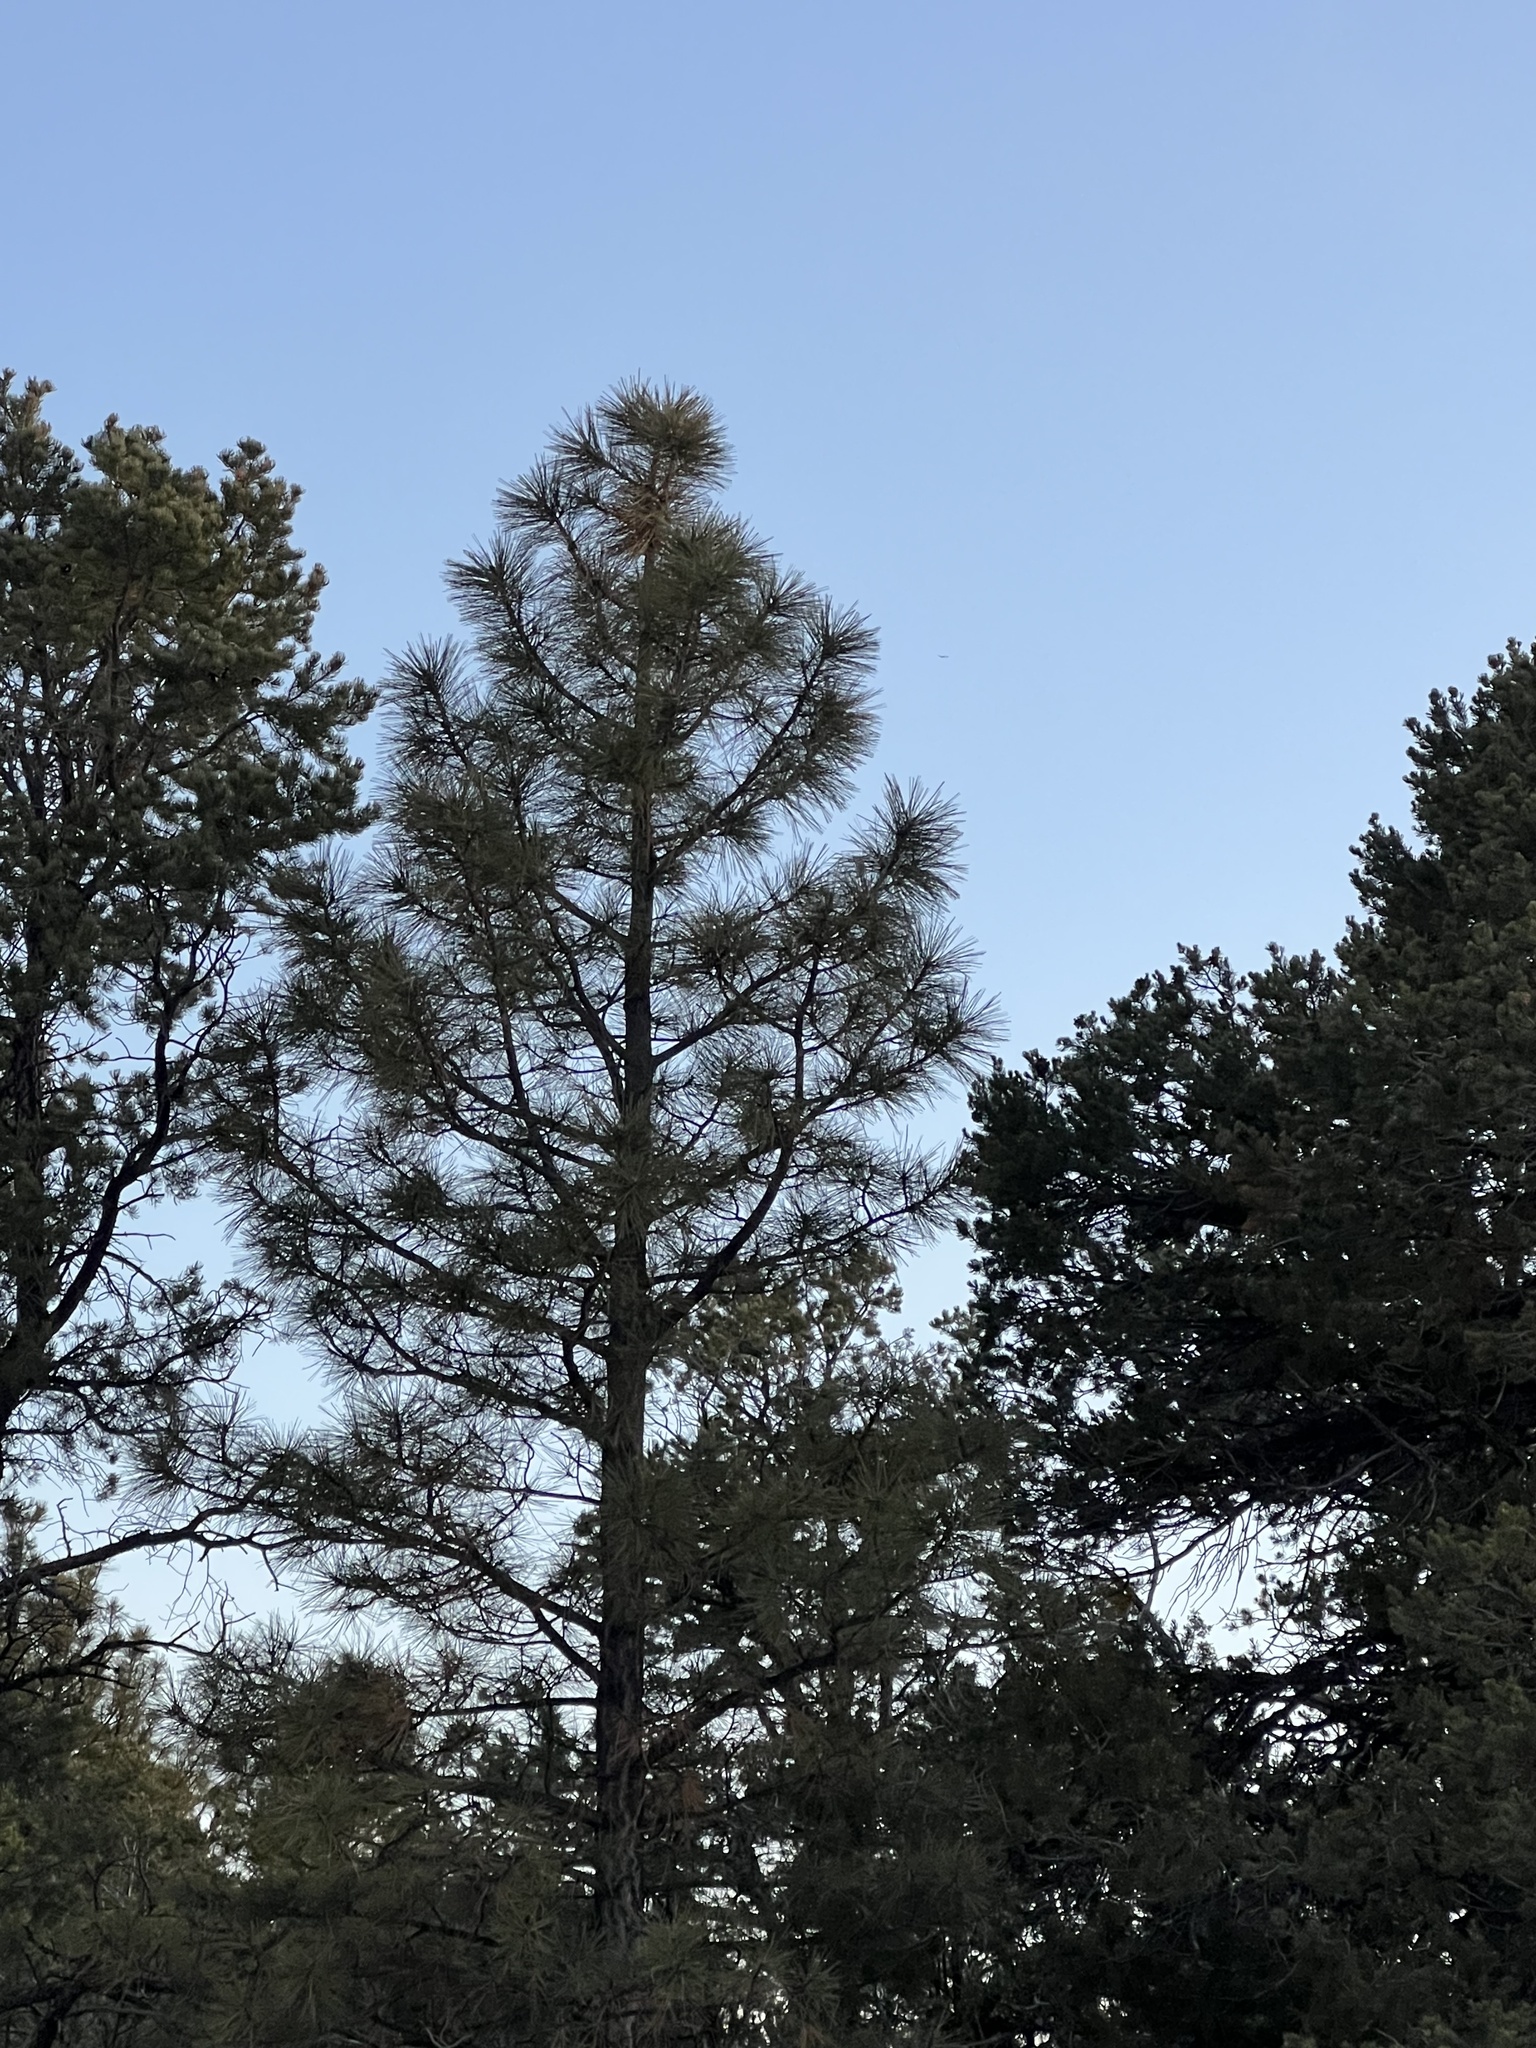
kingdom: Plantae
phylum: Tracheophyta
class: Pinopsida
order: Pinales
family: Pinaceae
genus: Pinus
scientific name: Pinus ponderosa
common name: Western yellow-pine
